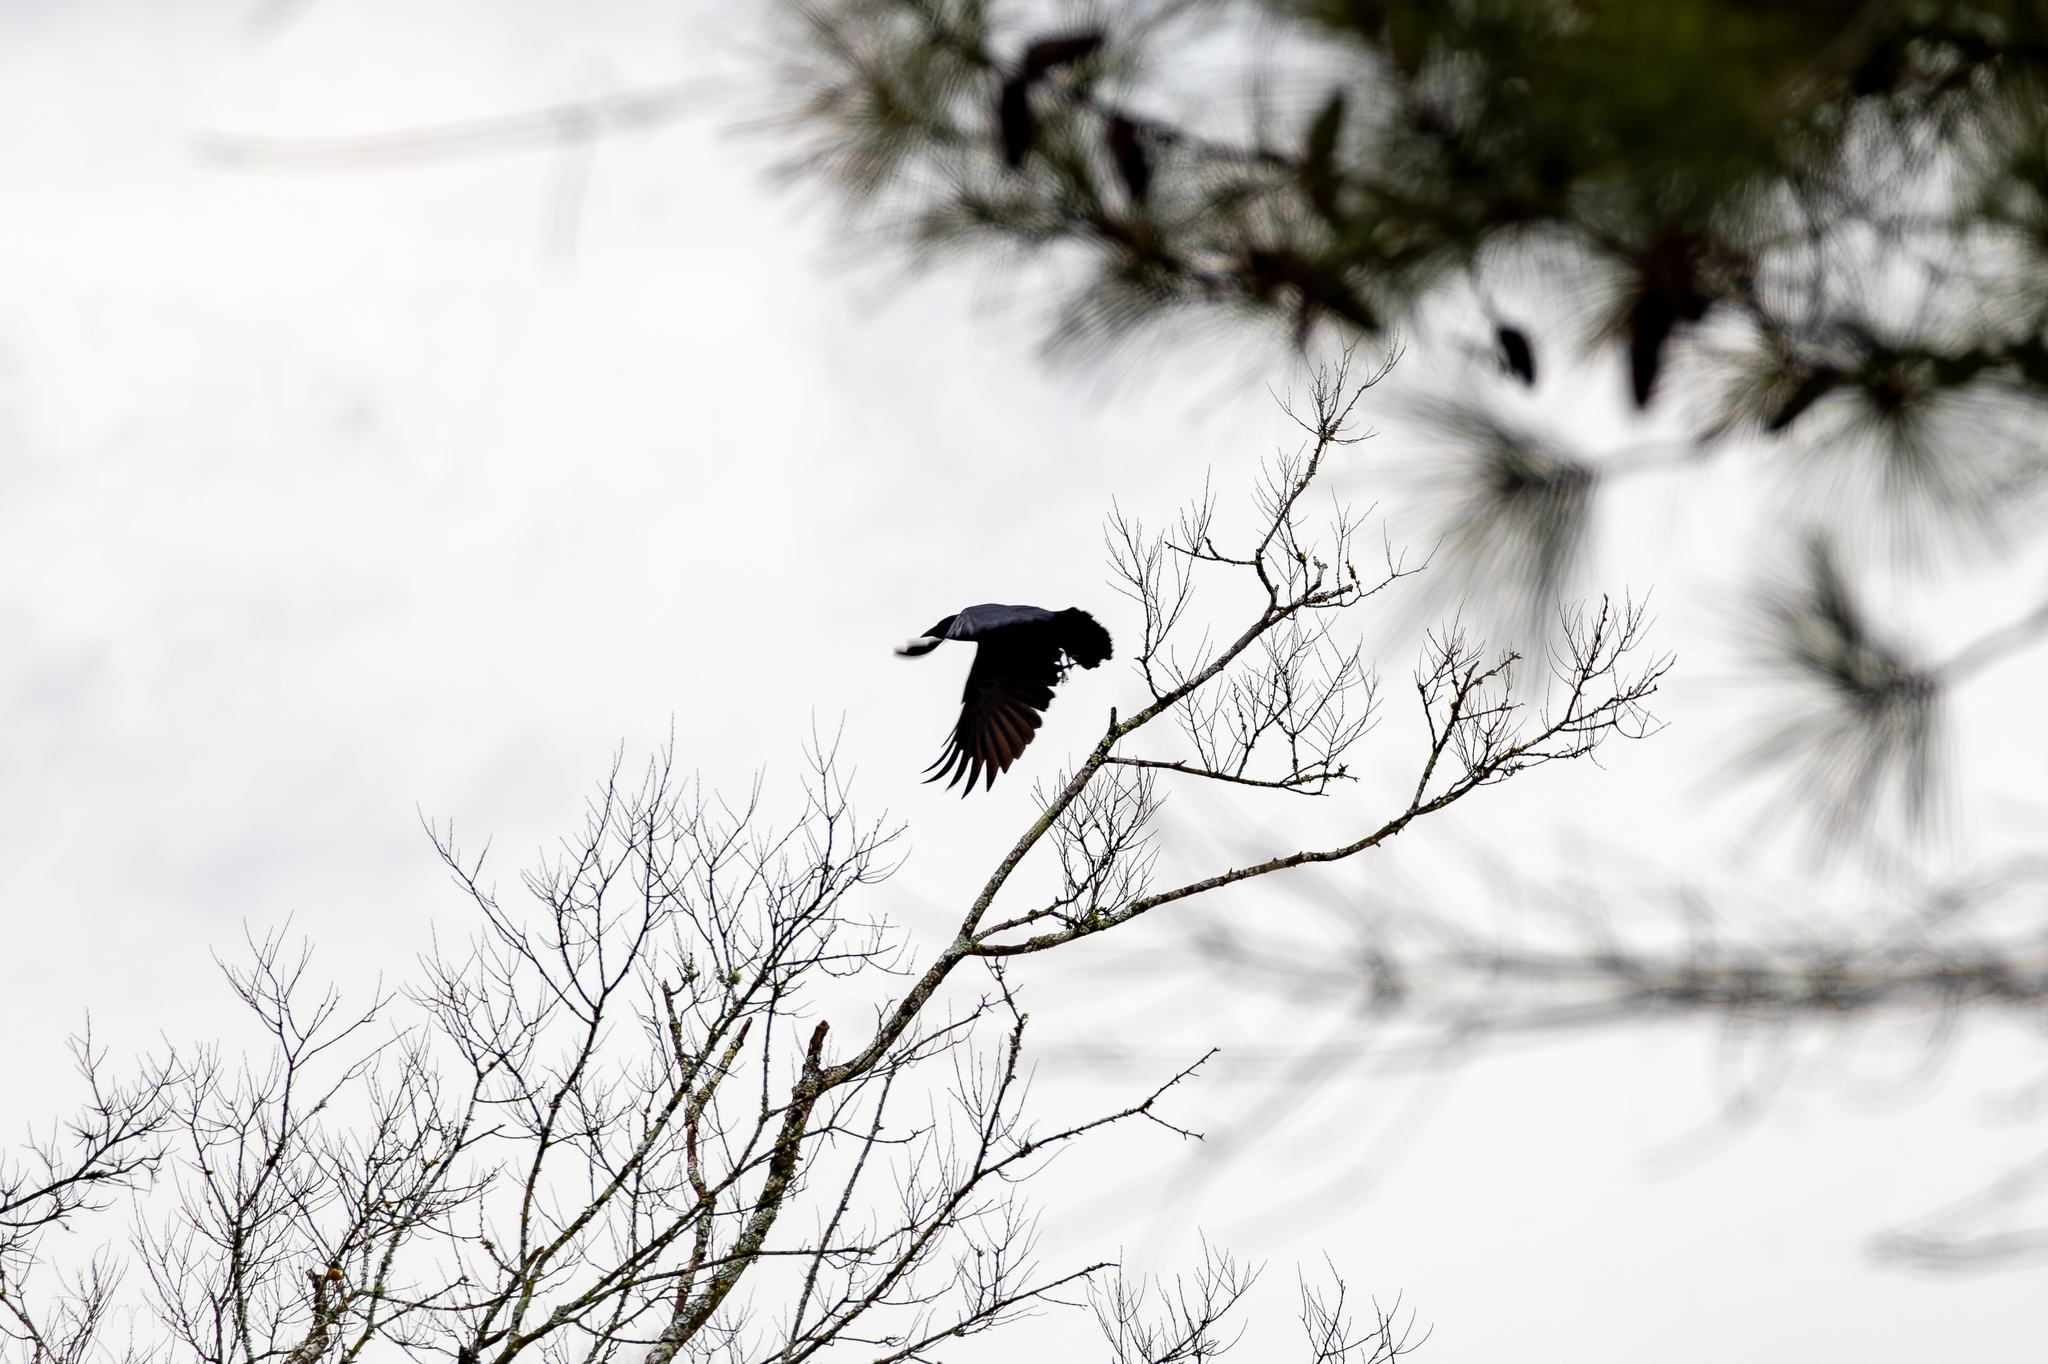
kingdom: Animalia
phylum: Chordata
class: Aves
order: Passeriformes
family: Corvidae
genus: Corvus
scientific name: Corvus brachyrhynchos
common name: American crow
